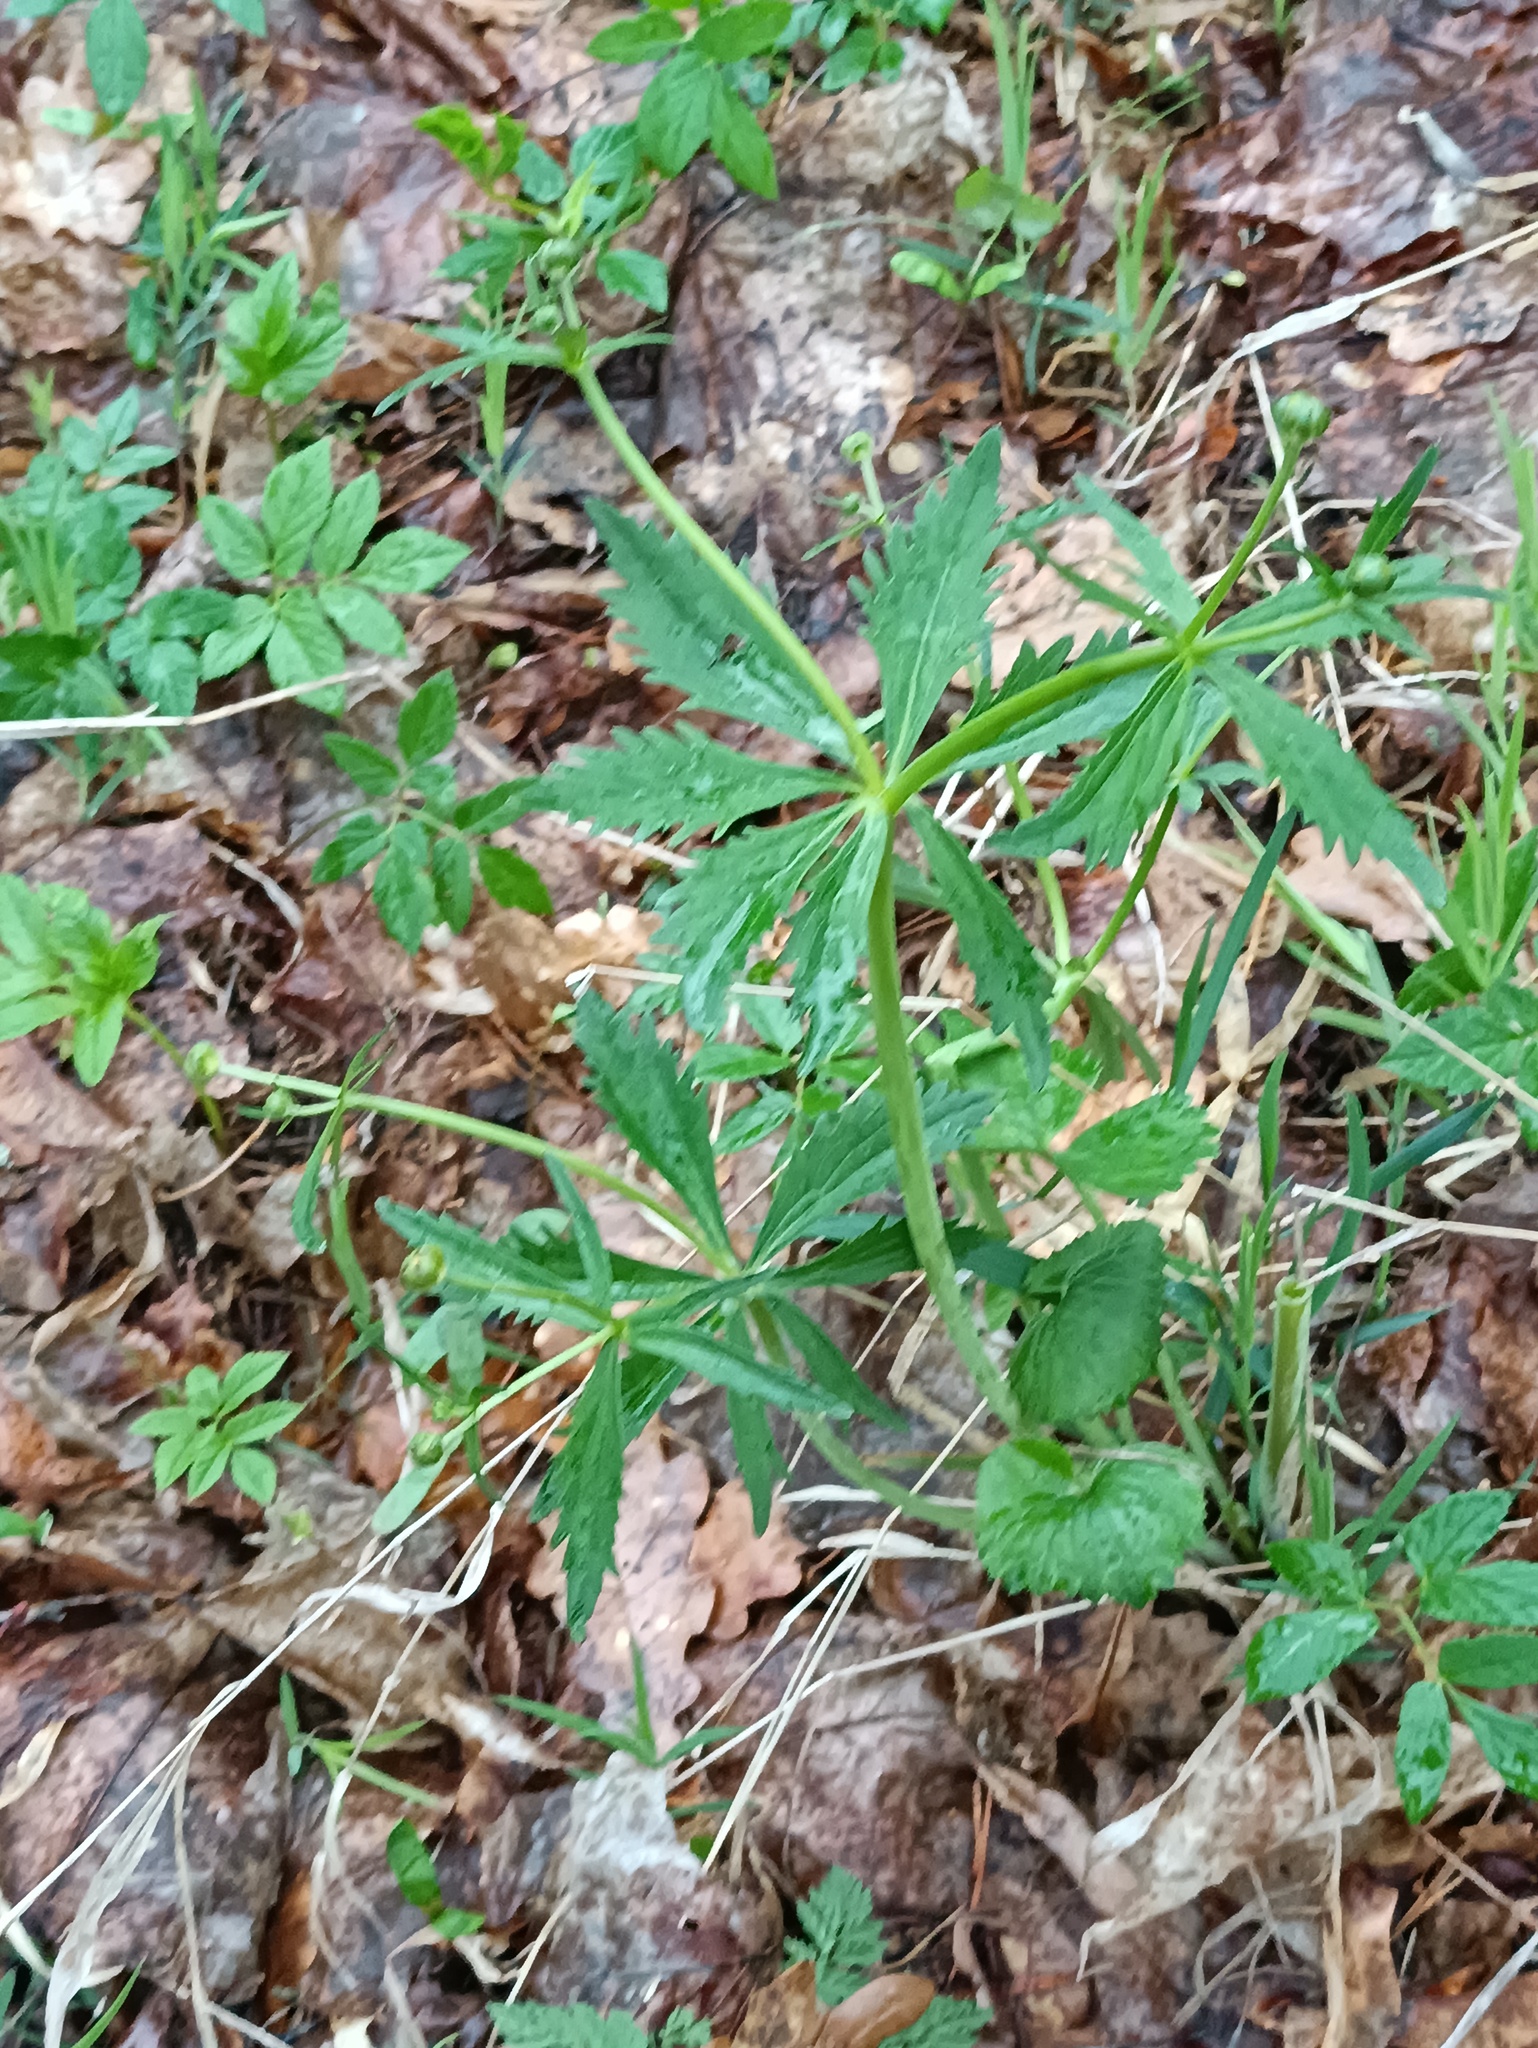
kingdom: Plantae
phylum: Tracheophyta
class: Magnoliopsida
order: Ranunculales
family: Ranunculaceae
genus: Ranunculus
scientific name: Ranunculus cassubicus
